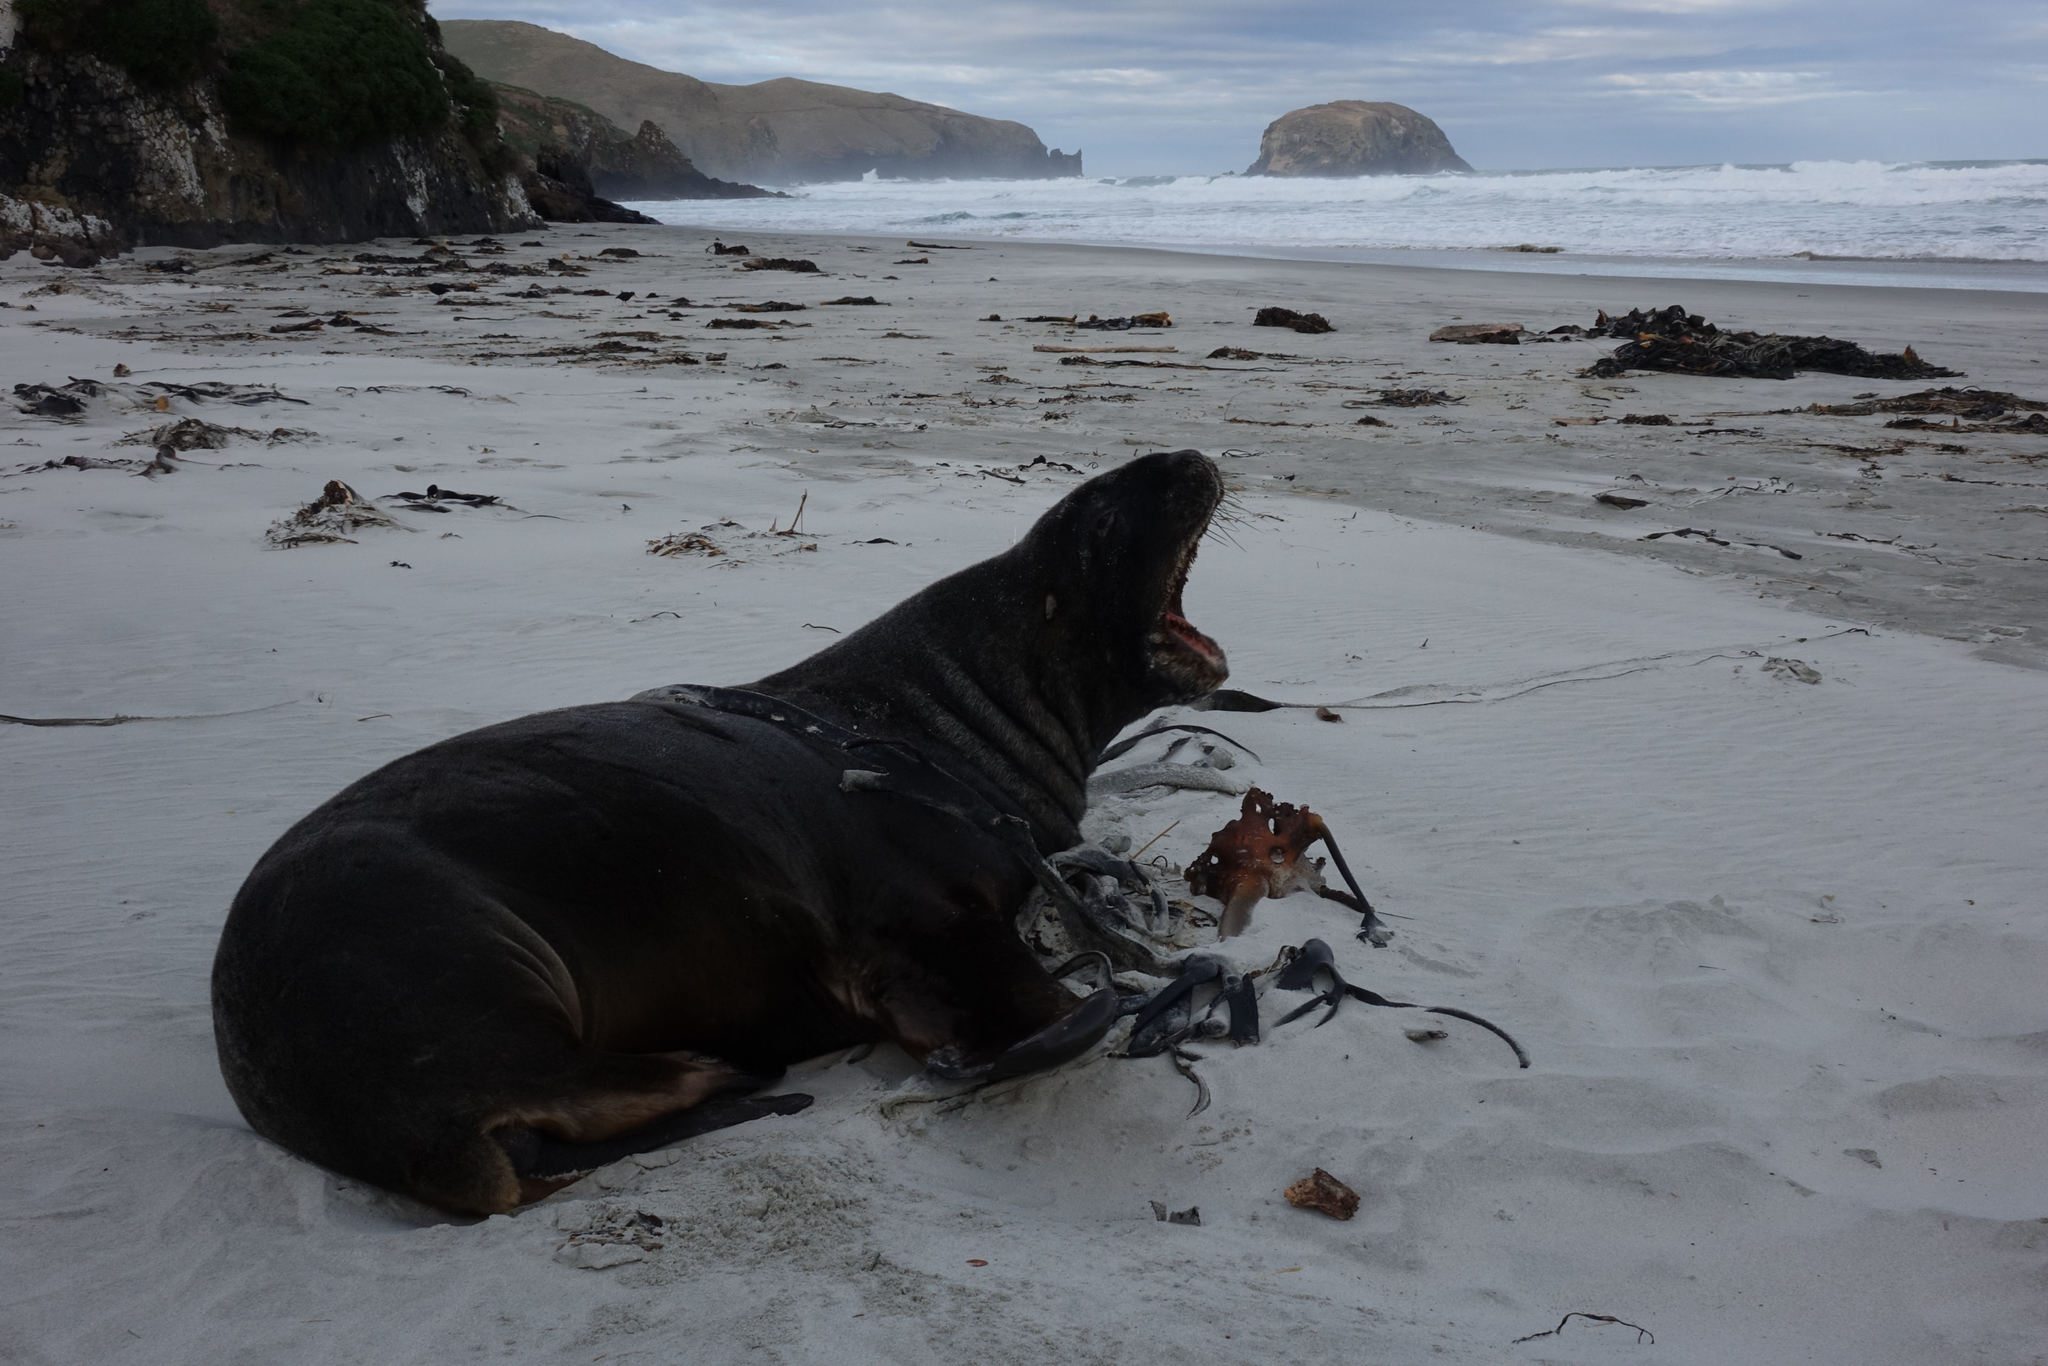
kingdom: Animalia
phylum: Chordata
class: Mammalia
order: Carnivora
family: Otariidae
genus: Phocarctos
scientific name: Phocarctos hookeri
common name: New zealand sea lion
